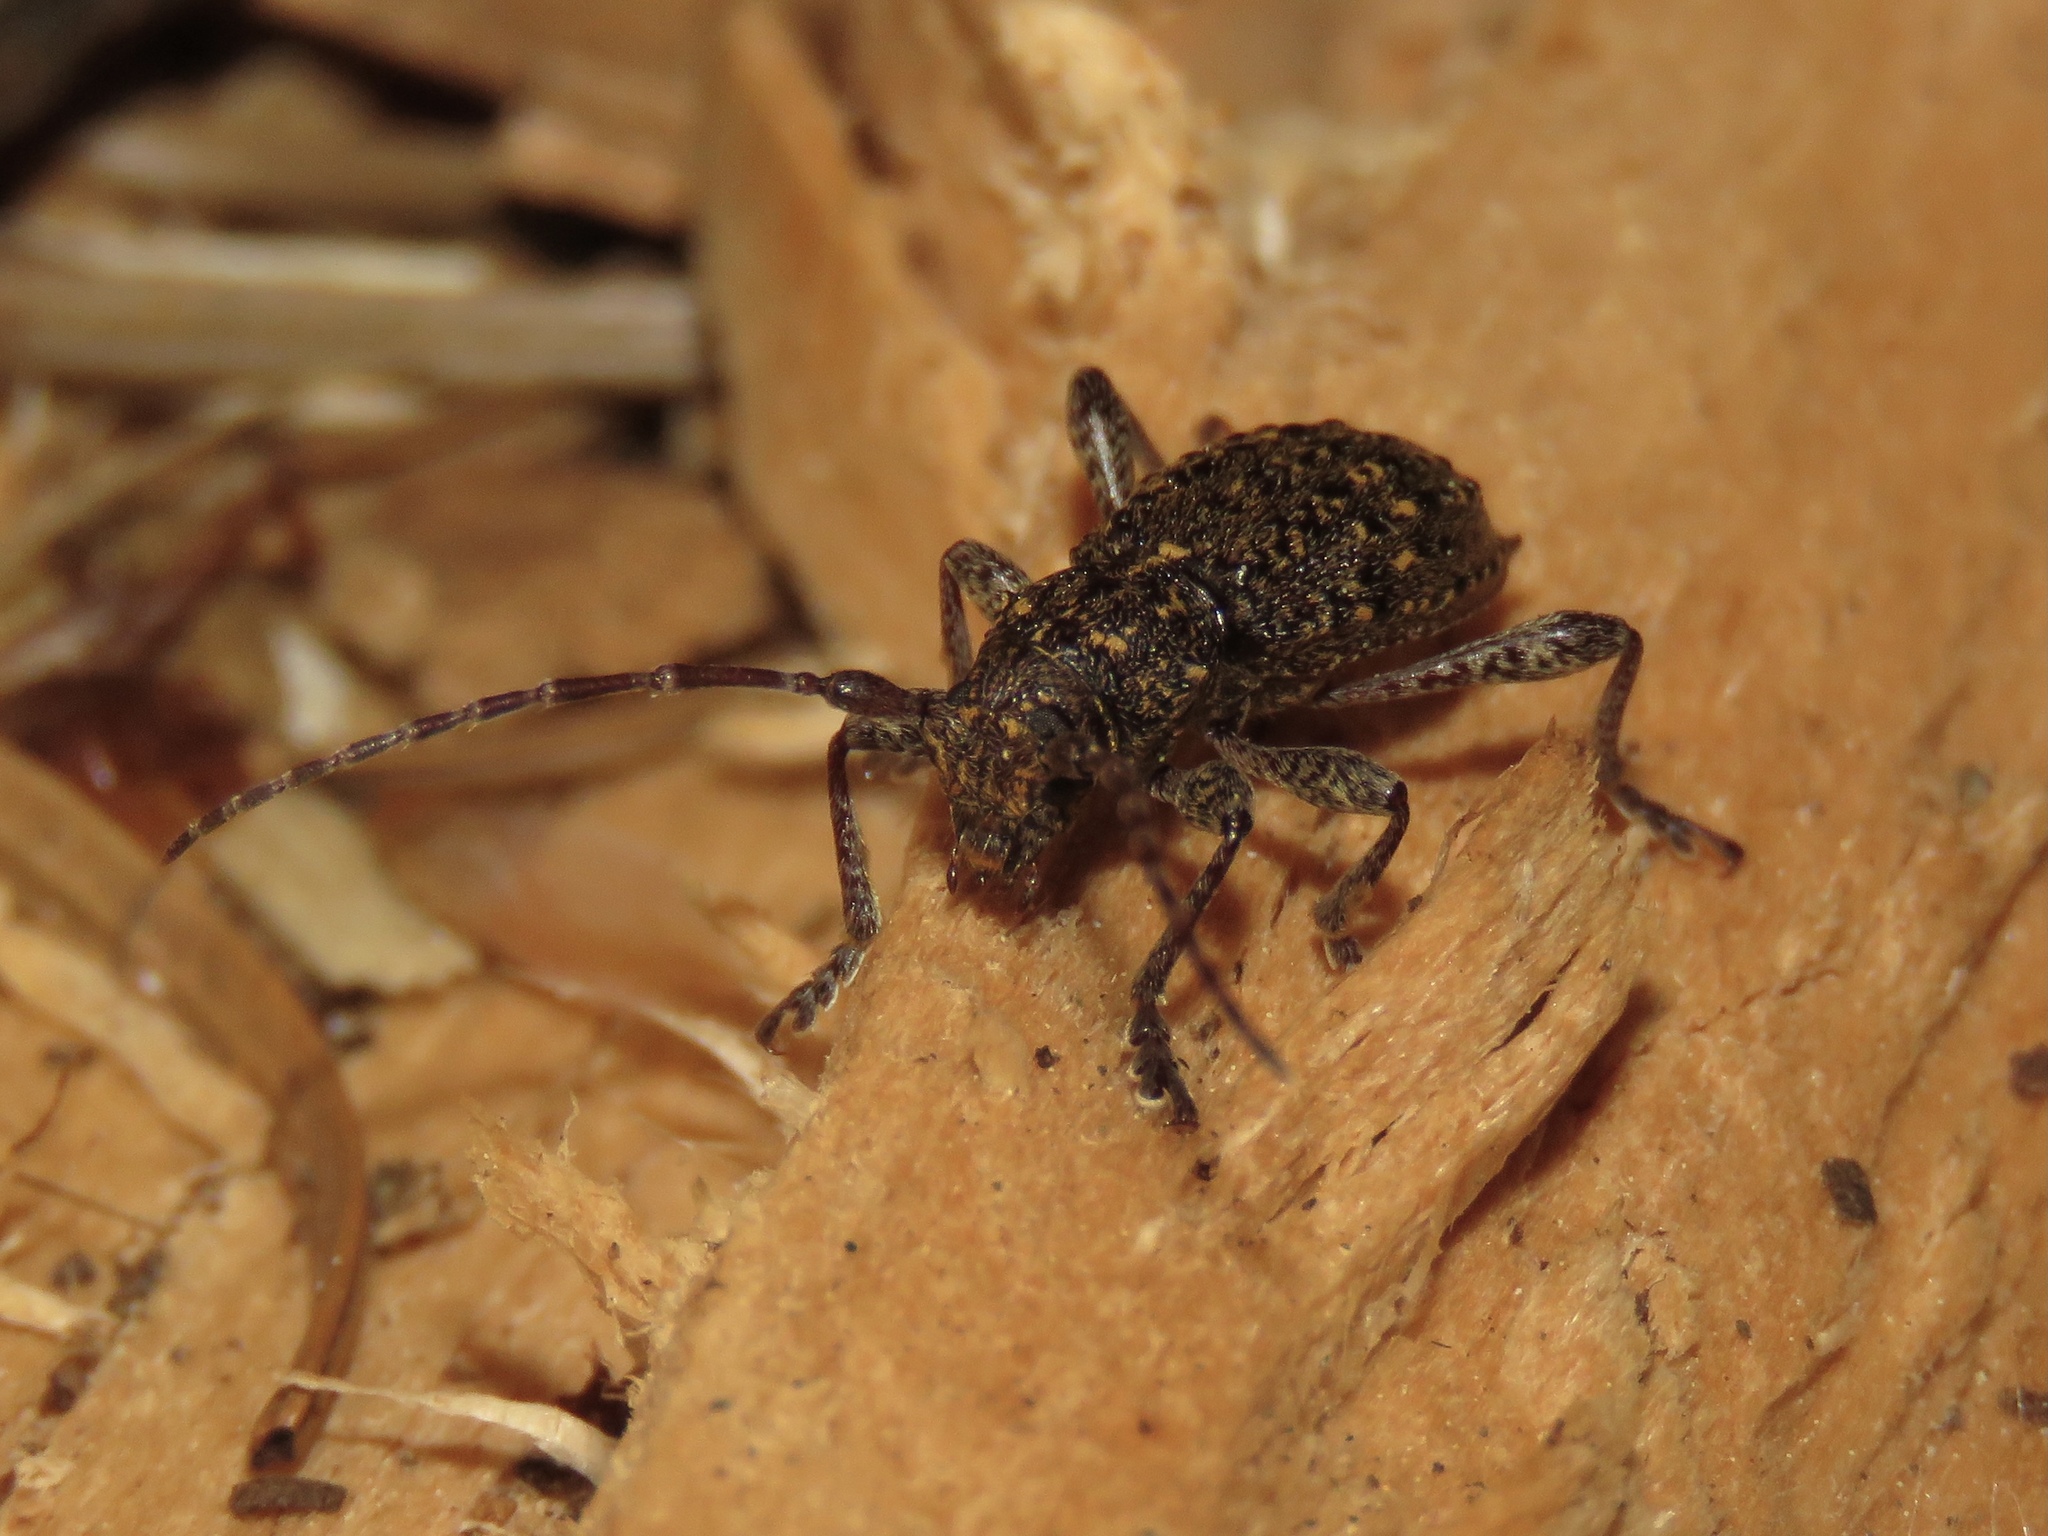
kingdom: Animalia
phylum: Arthropoda
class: Insecta
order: Coleoptera
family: Cerambycidae
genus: Plectrura
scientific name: Plectrura spinicauda
